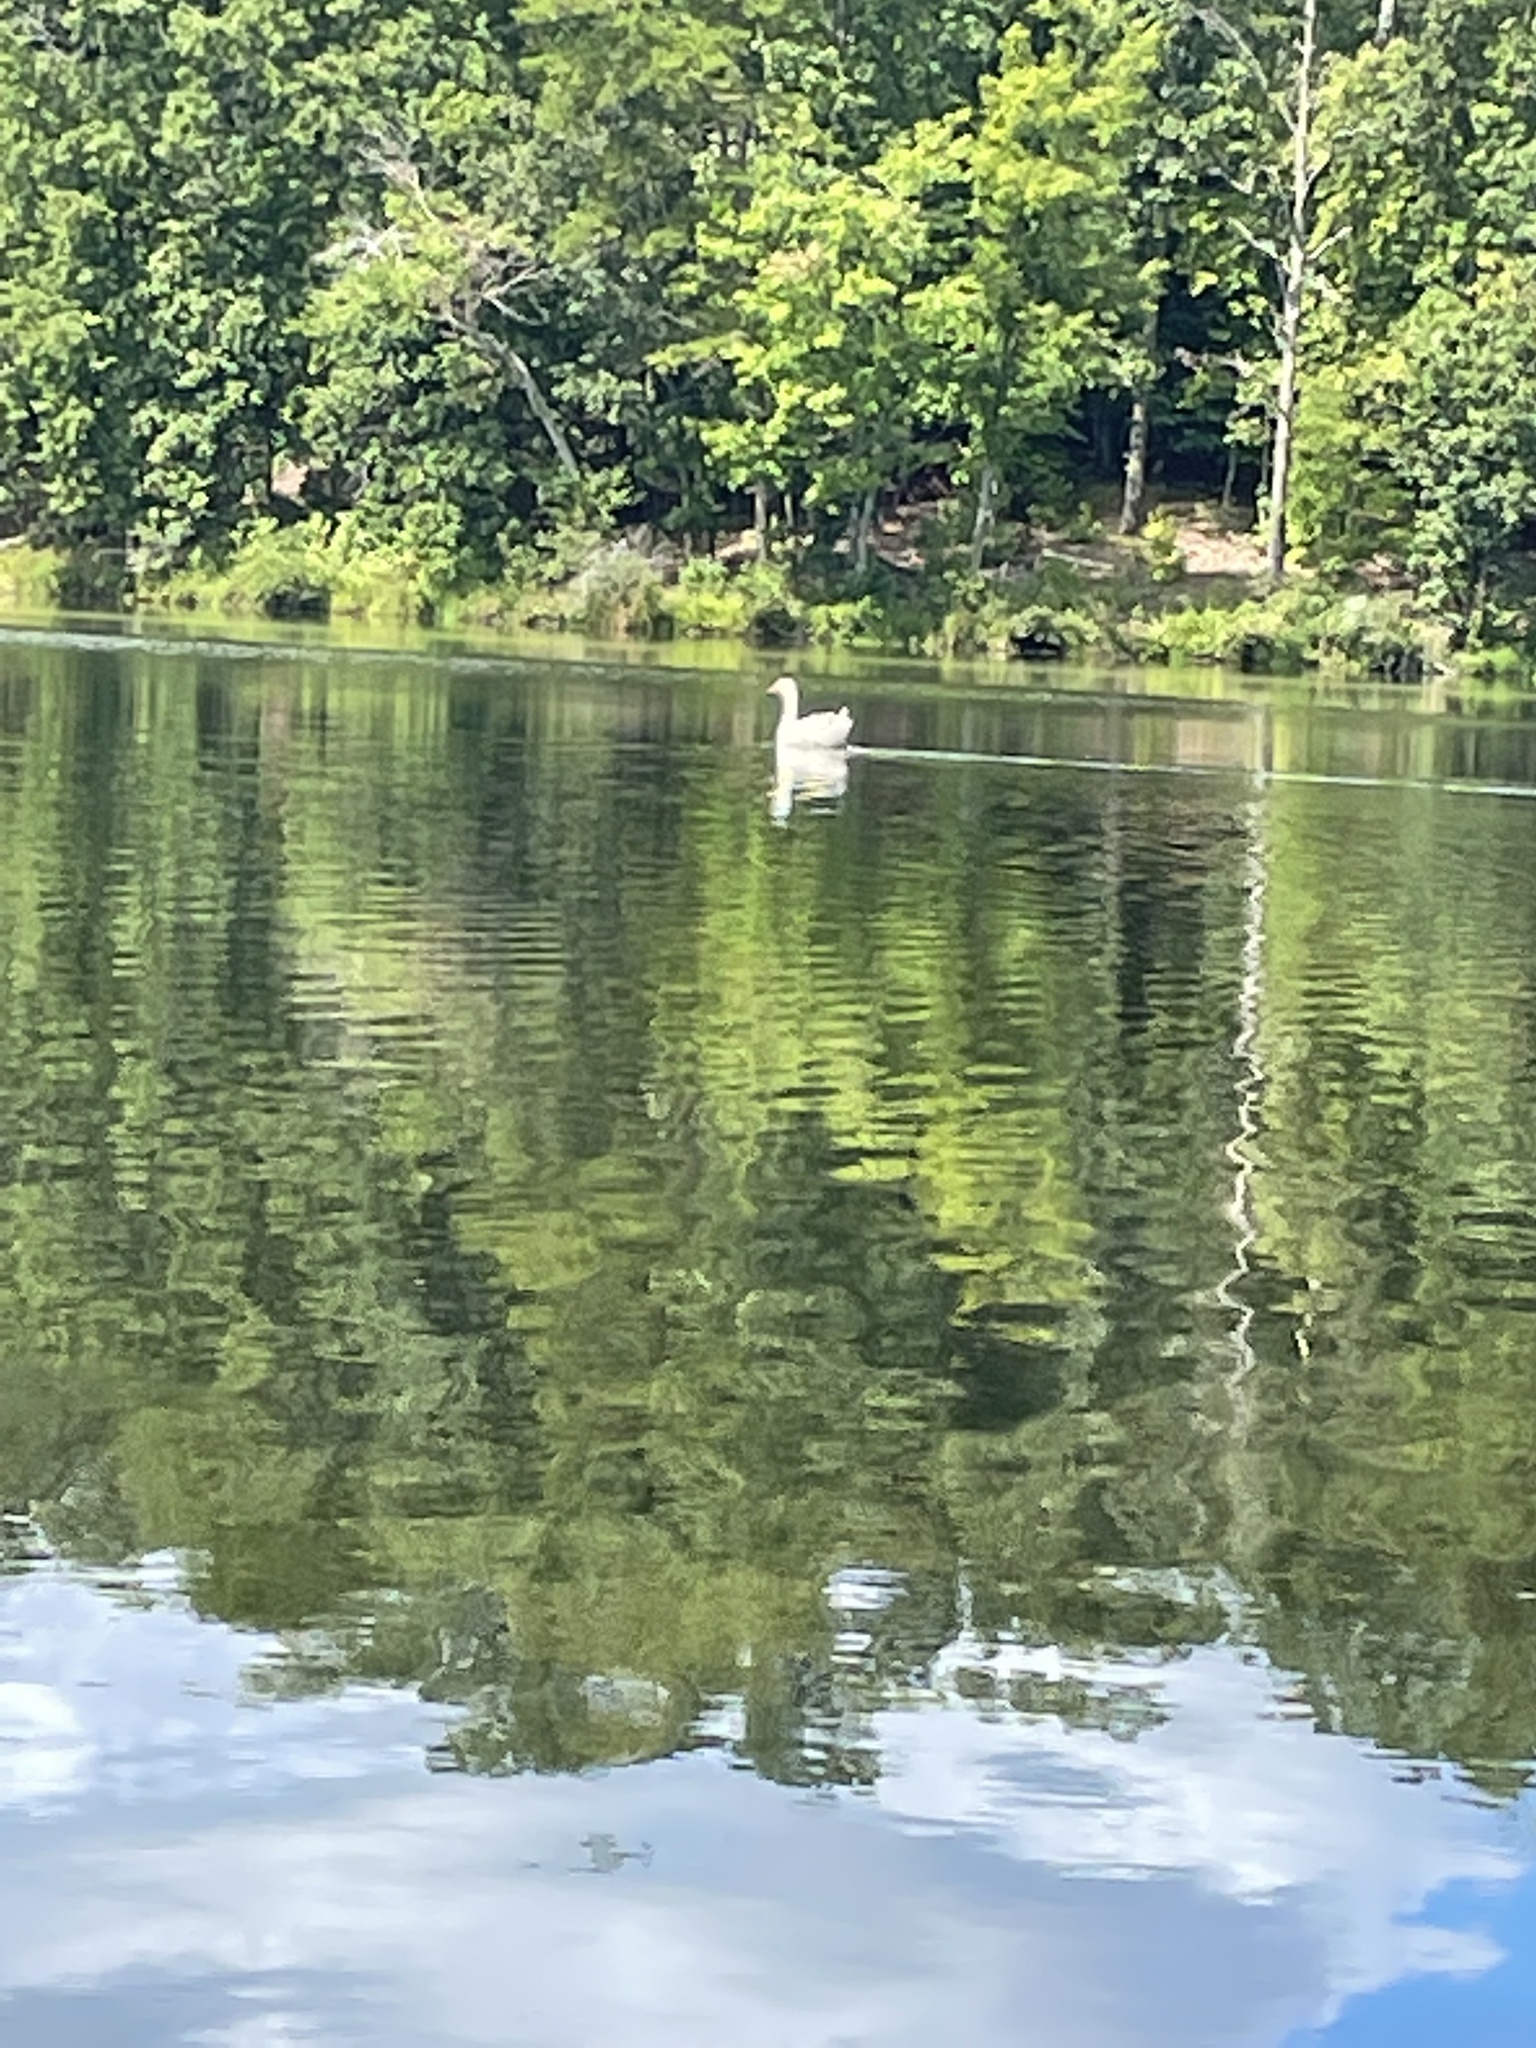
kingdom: Animalia
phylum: Chordata
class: Aves
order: Anseriformes
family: Anatidae
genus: Anser
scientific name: Anser anser
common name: Greylag goose
